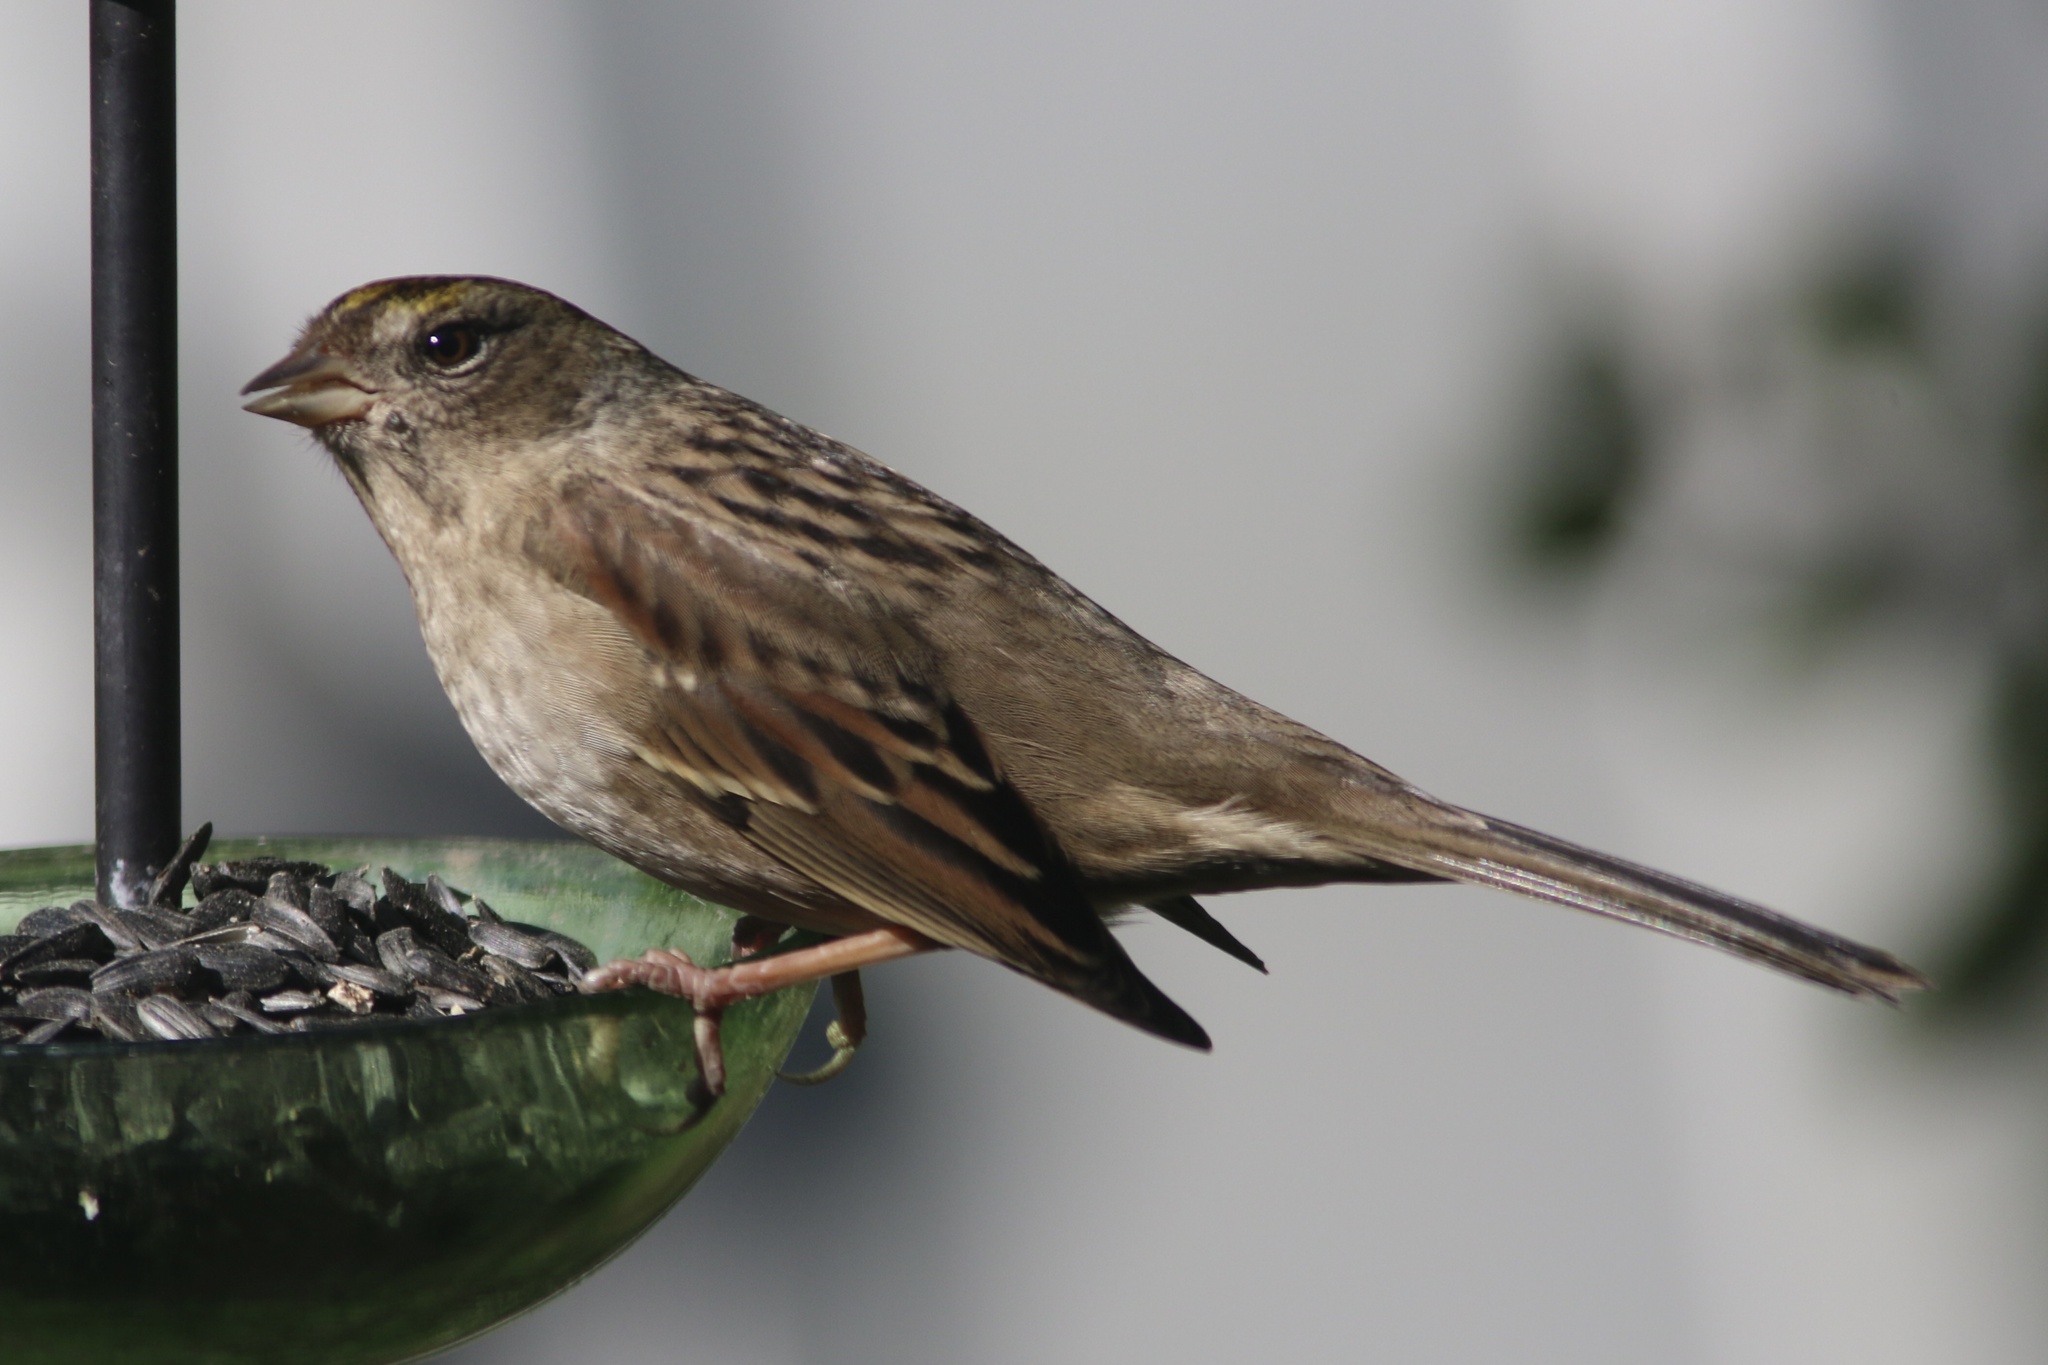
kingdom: Animalia
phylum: Chordata
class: Aves
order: Passeriformes
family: Passerellidae
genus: Zonotrichia
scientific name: Zonotrichia atricapilla
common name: Golden-crowned sparrow
